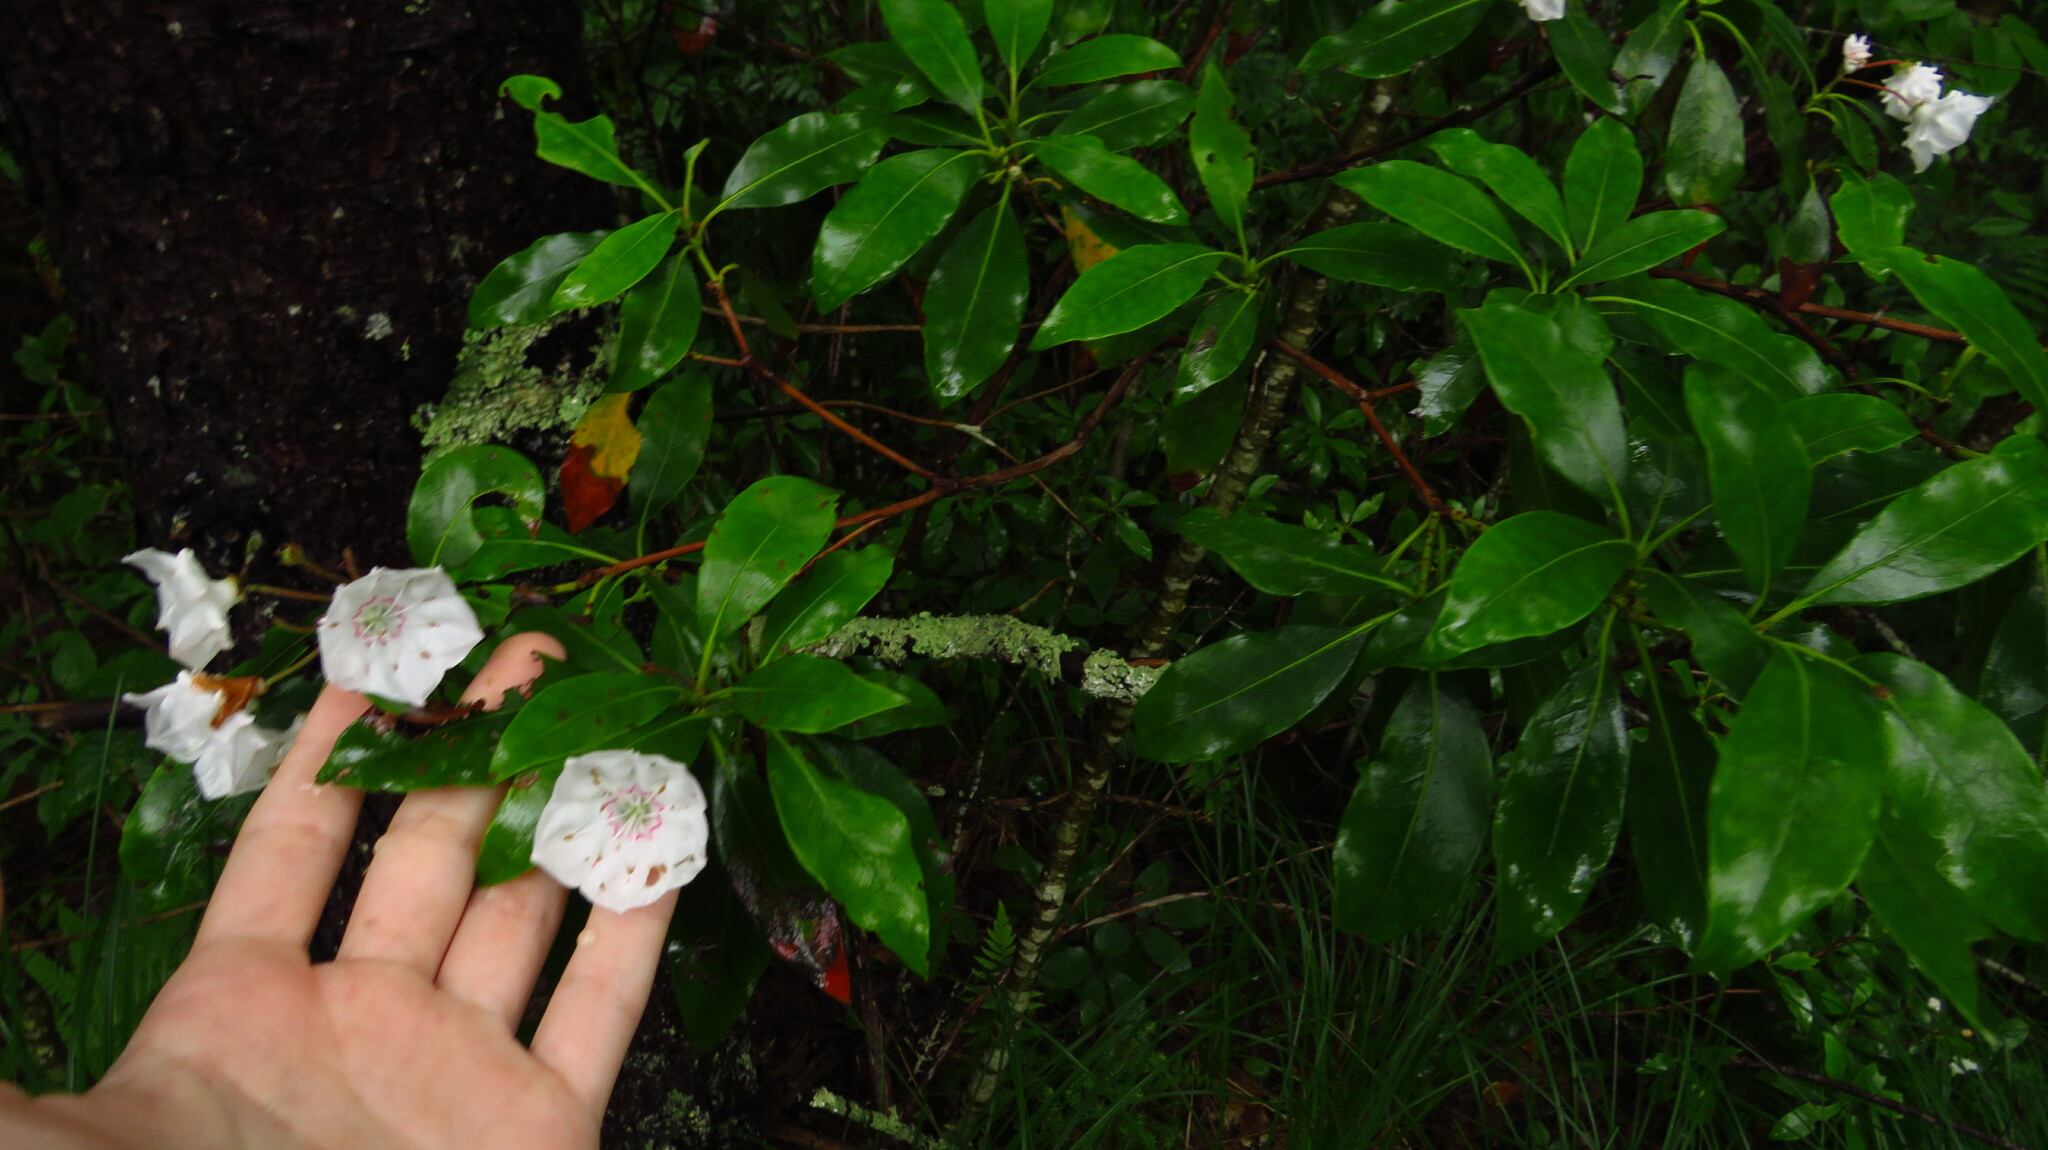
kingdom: Plantae
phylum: Tracheophyta
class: Magnoliopsida
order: Ericales
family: Ericaceae
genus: Kalmia
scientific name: Kalmia latifolia
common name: Mountain-laurel
